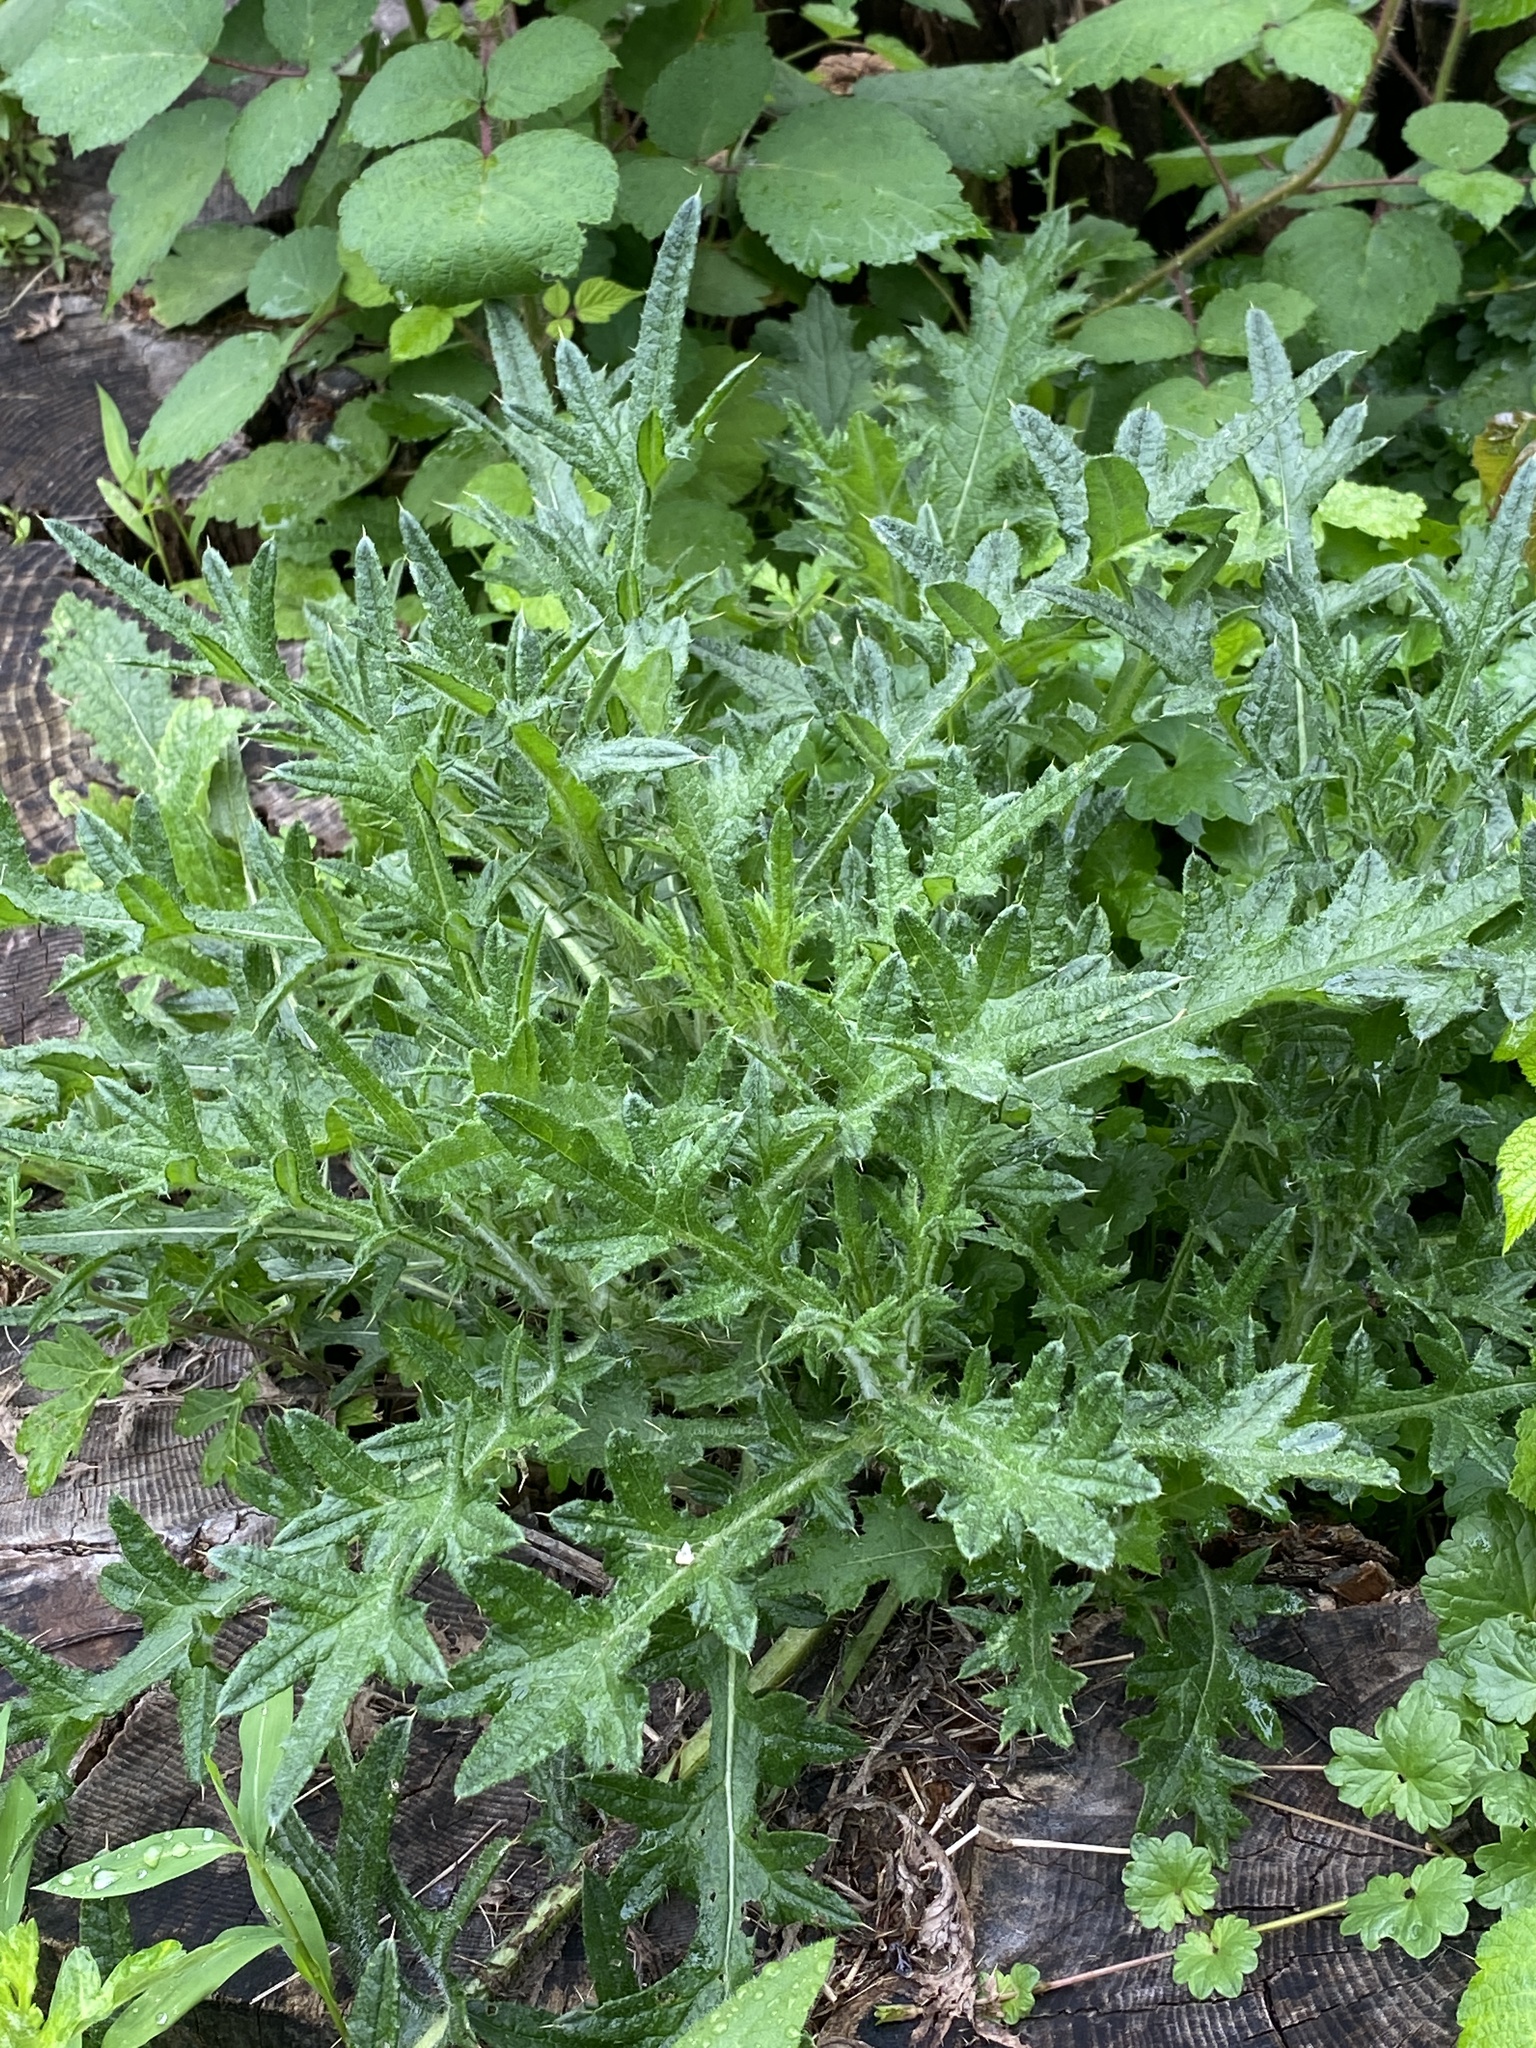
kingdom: Plantae
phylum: Tracheophyta
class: Magnoliopsida
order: Asterales
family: Asteraceae
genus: Cirsium
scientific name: Cirsium vulgare
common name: Bull thistle
